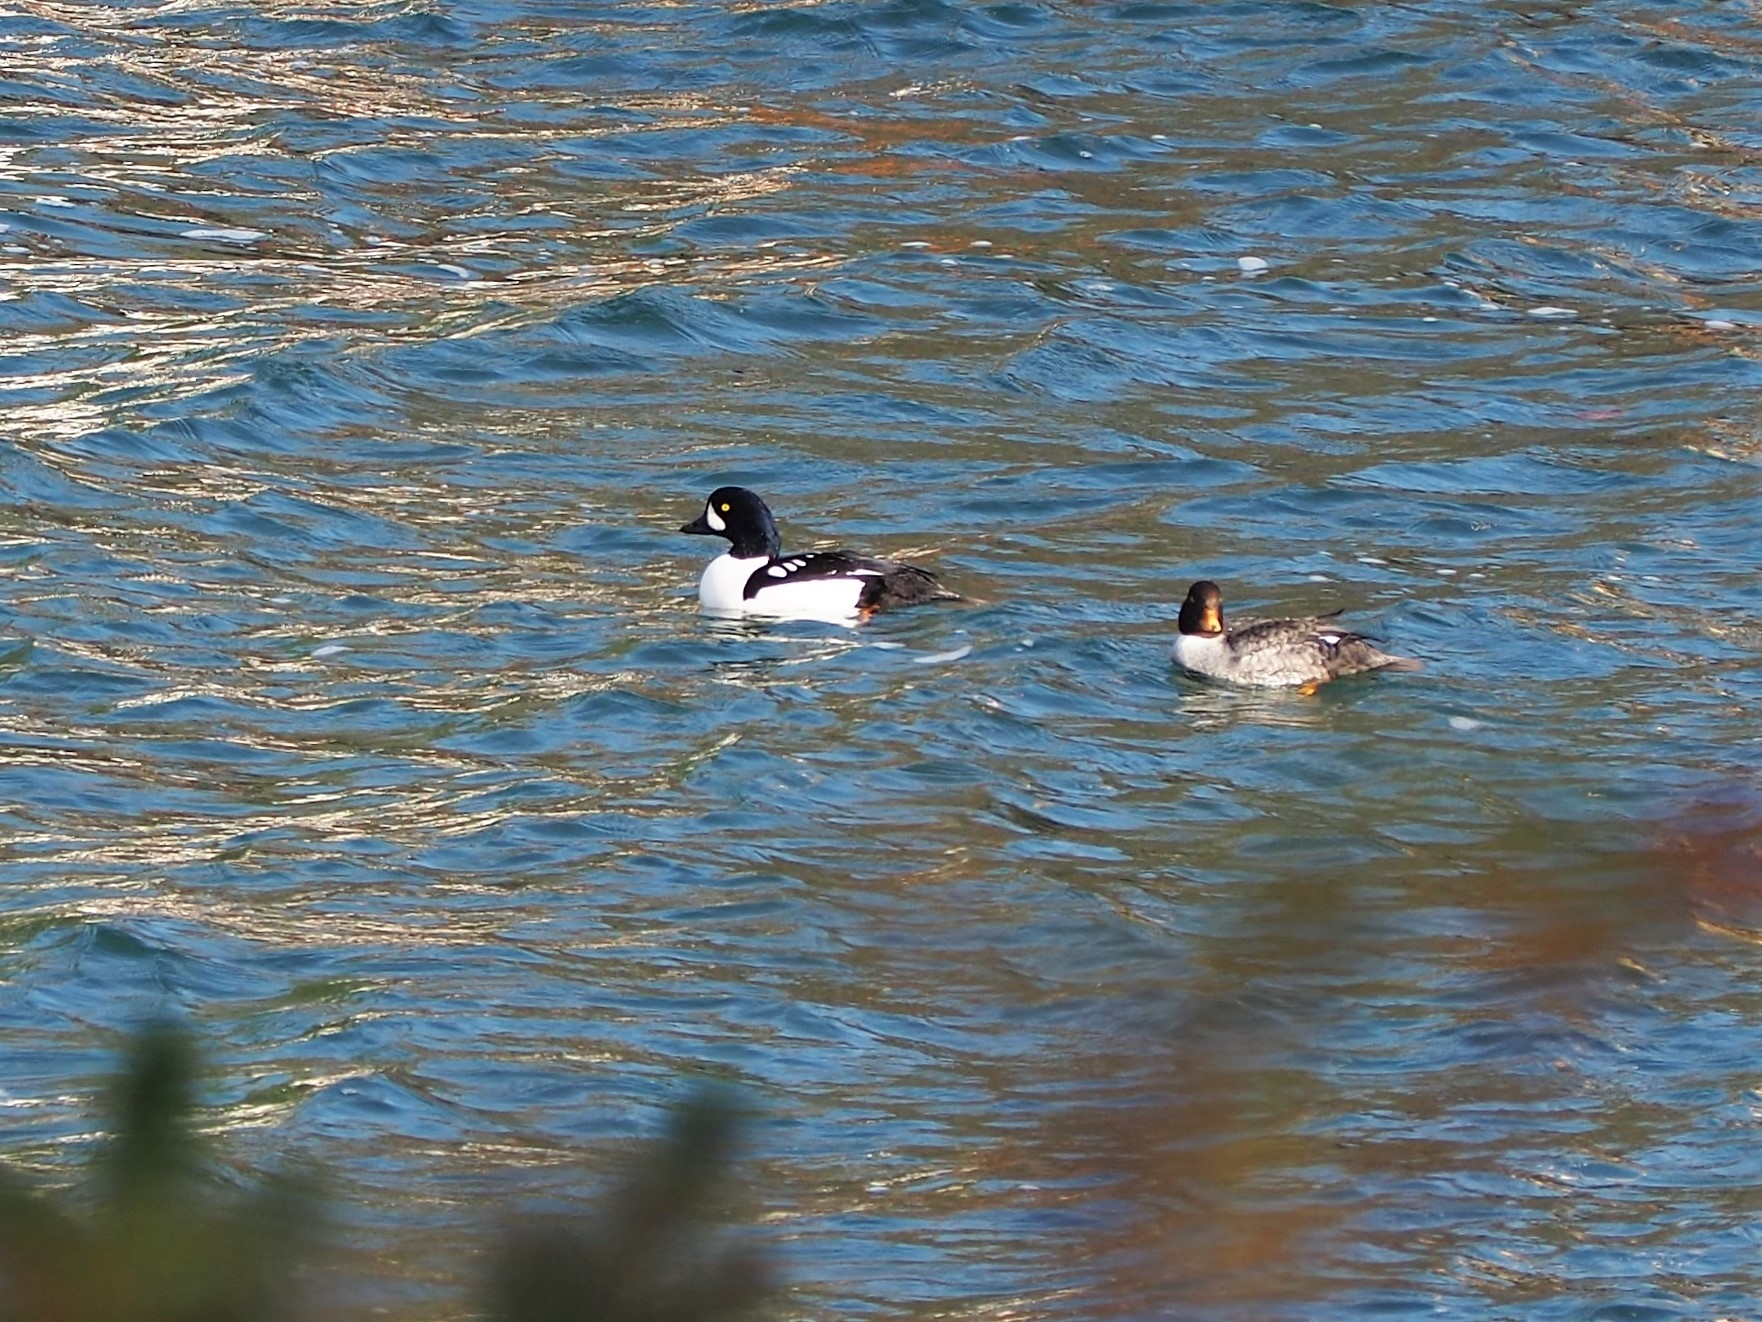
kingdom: Animalia
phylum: Chordata
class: Aves
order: Anseriformes
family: Anatidae
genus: Bucephala
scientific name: Bucephala islandica
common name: Barrow's goldeneye
